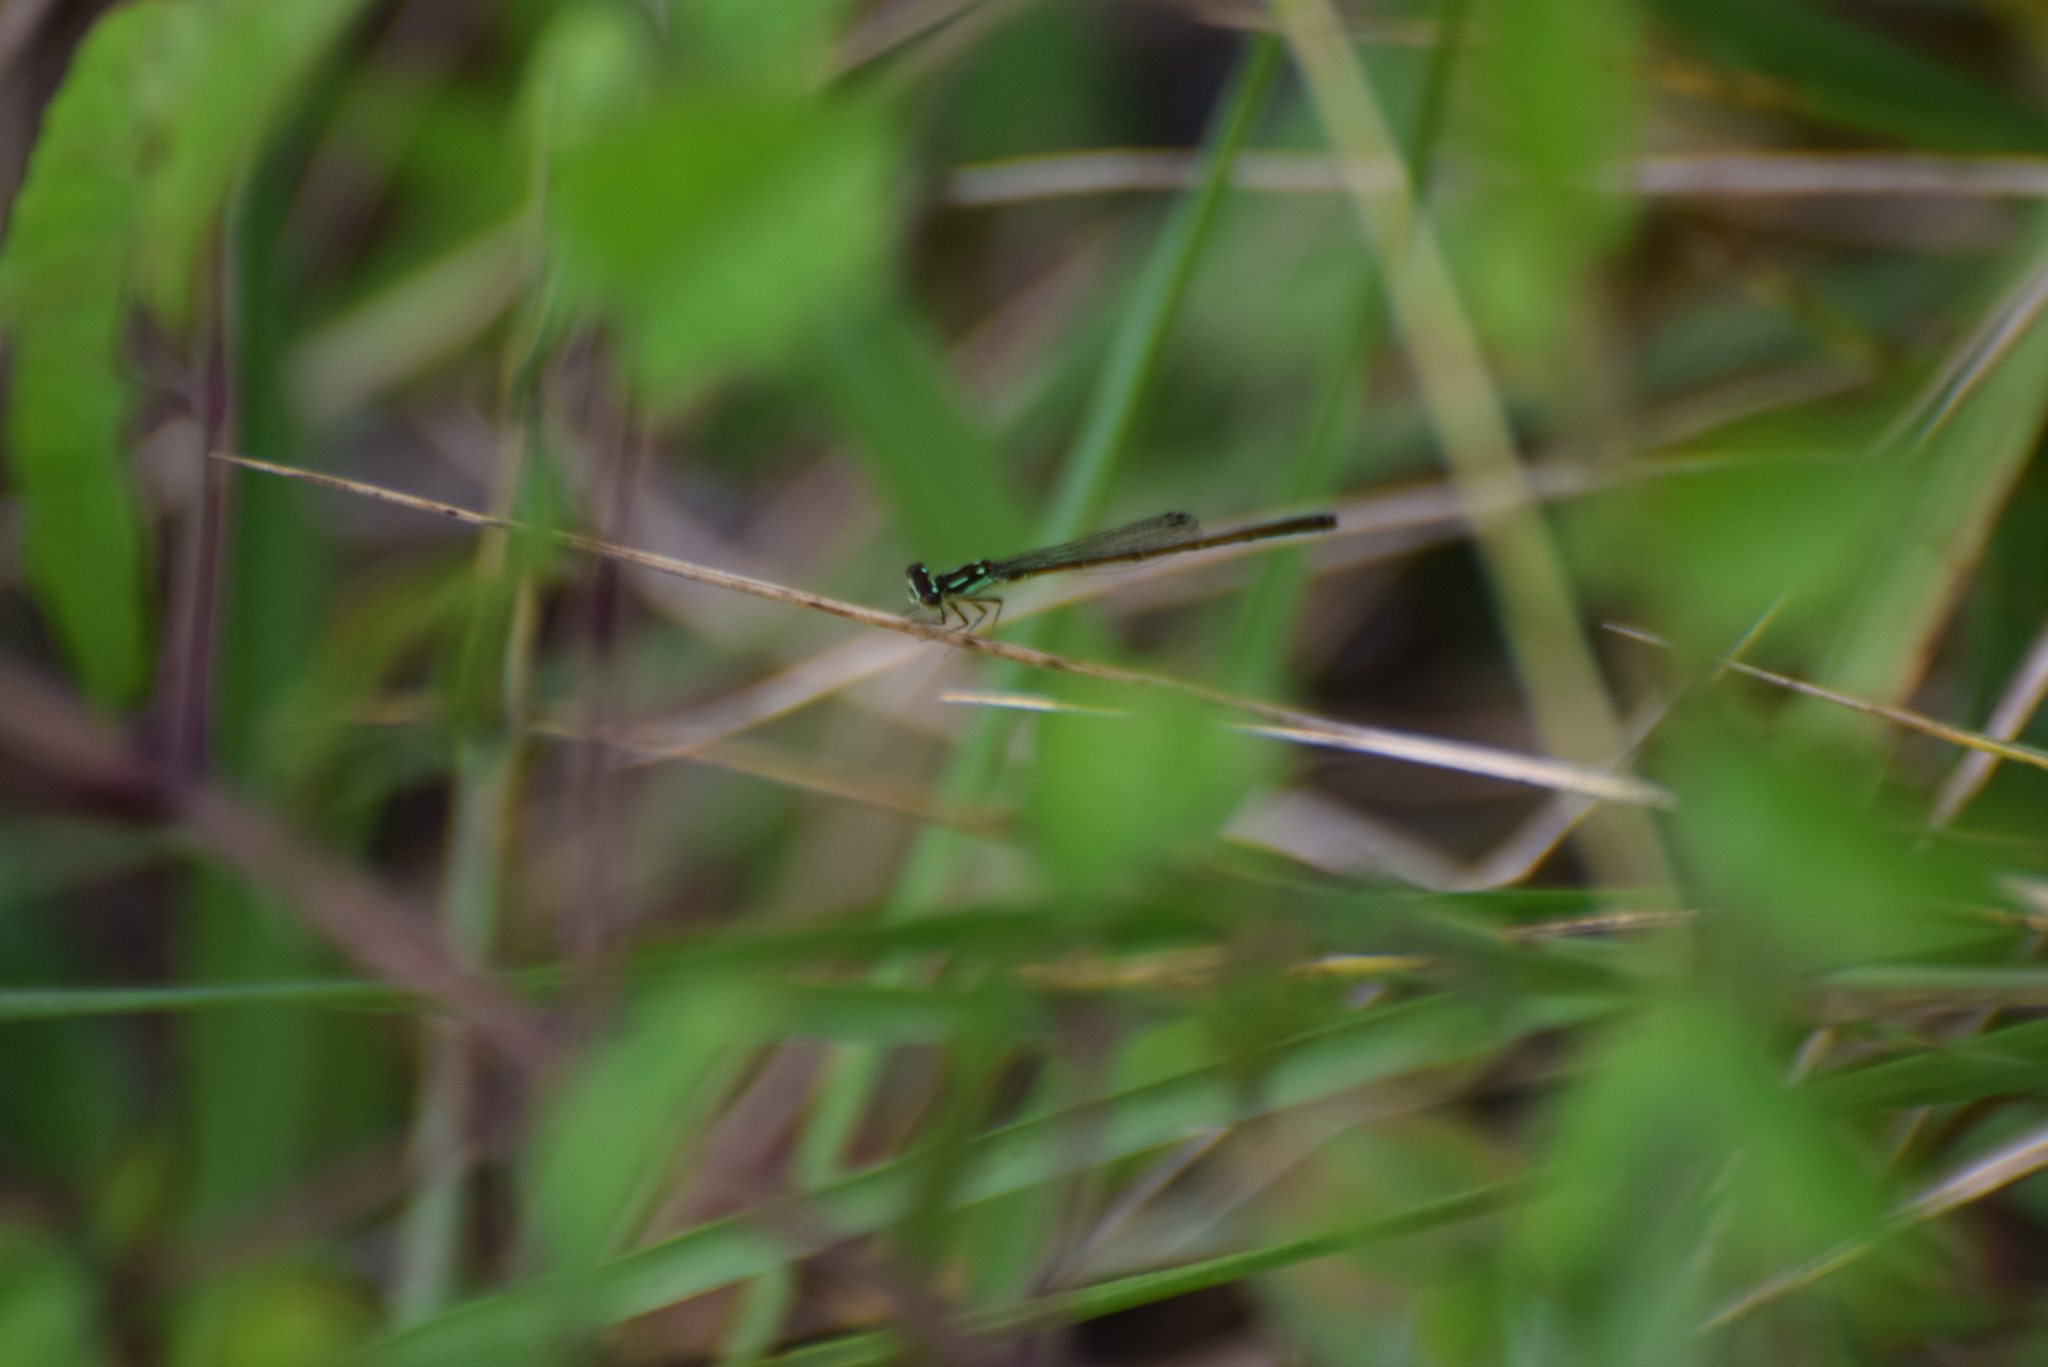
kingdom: Animalia
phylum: Arthropoda
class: Insecta
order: Odonata
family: Coenagrionidae
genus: Ischnura
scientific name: Ischnura posita
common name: Fragile forktail
